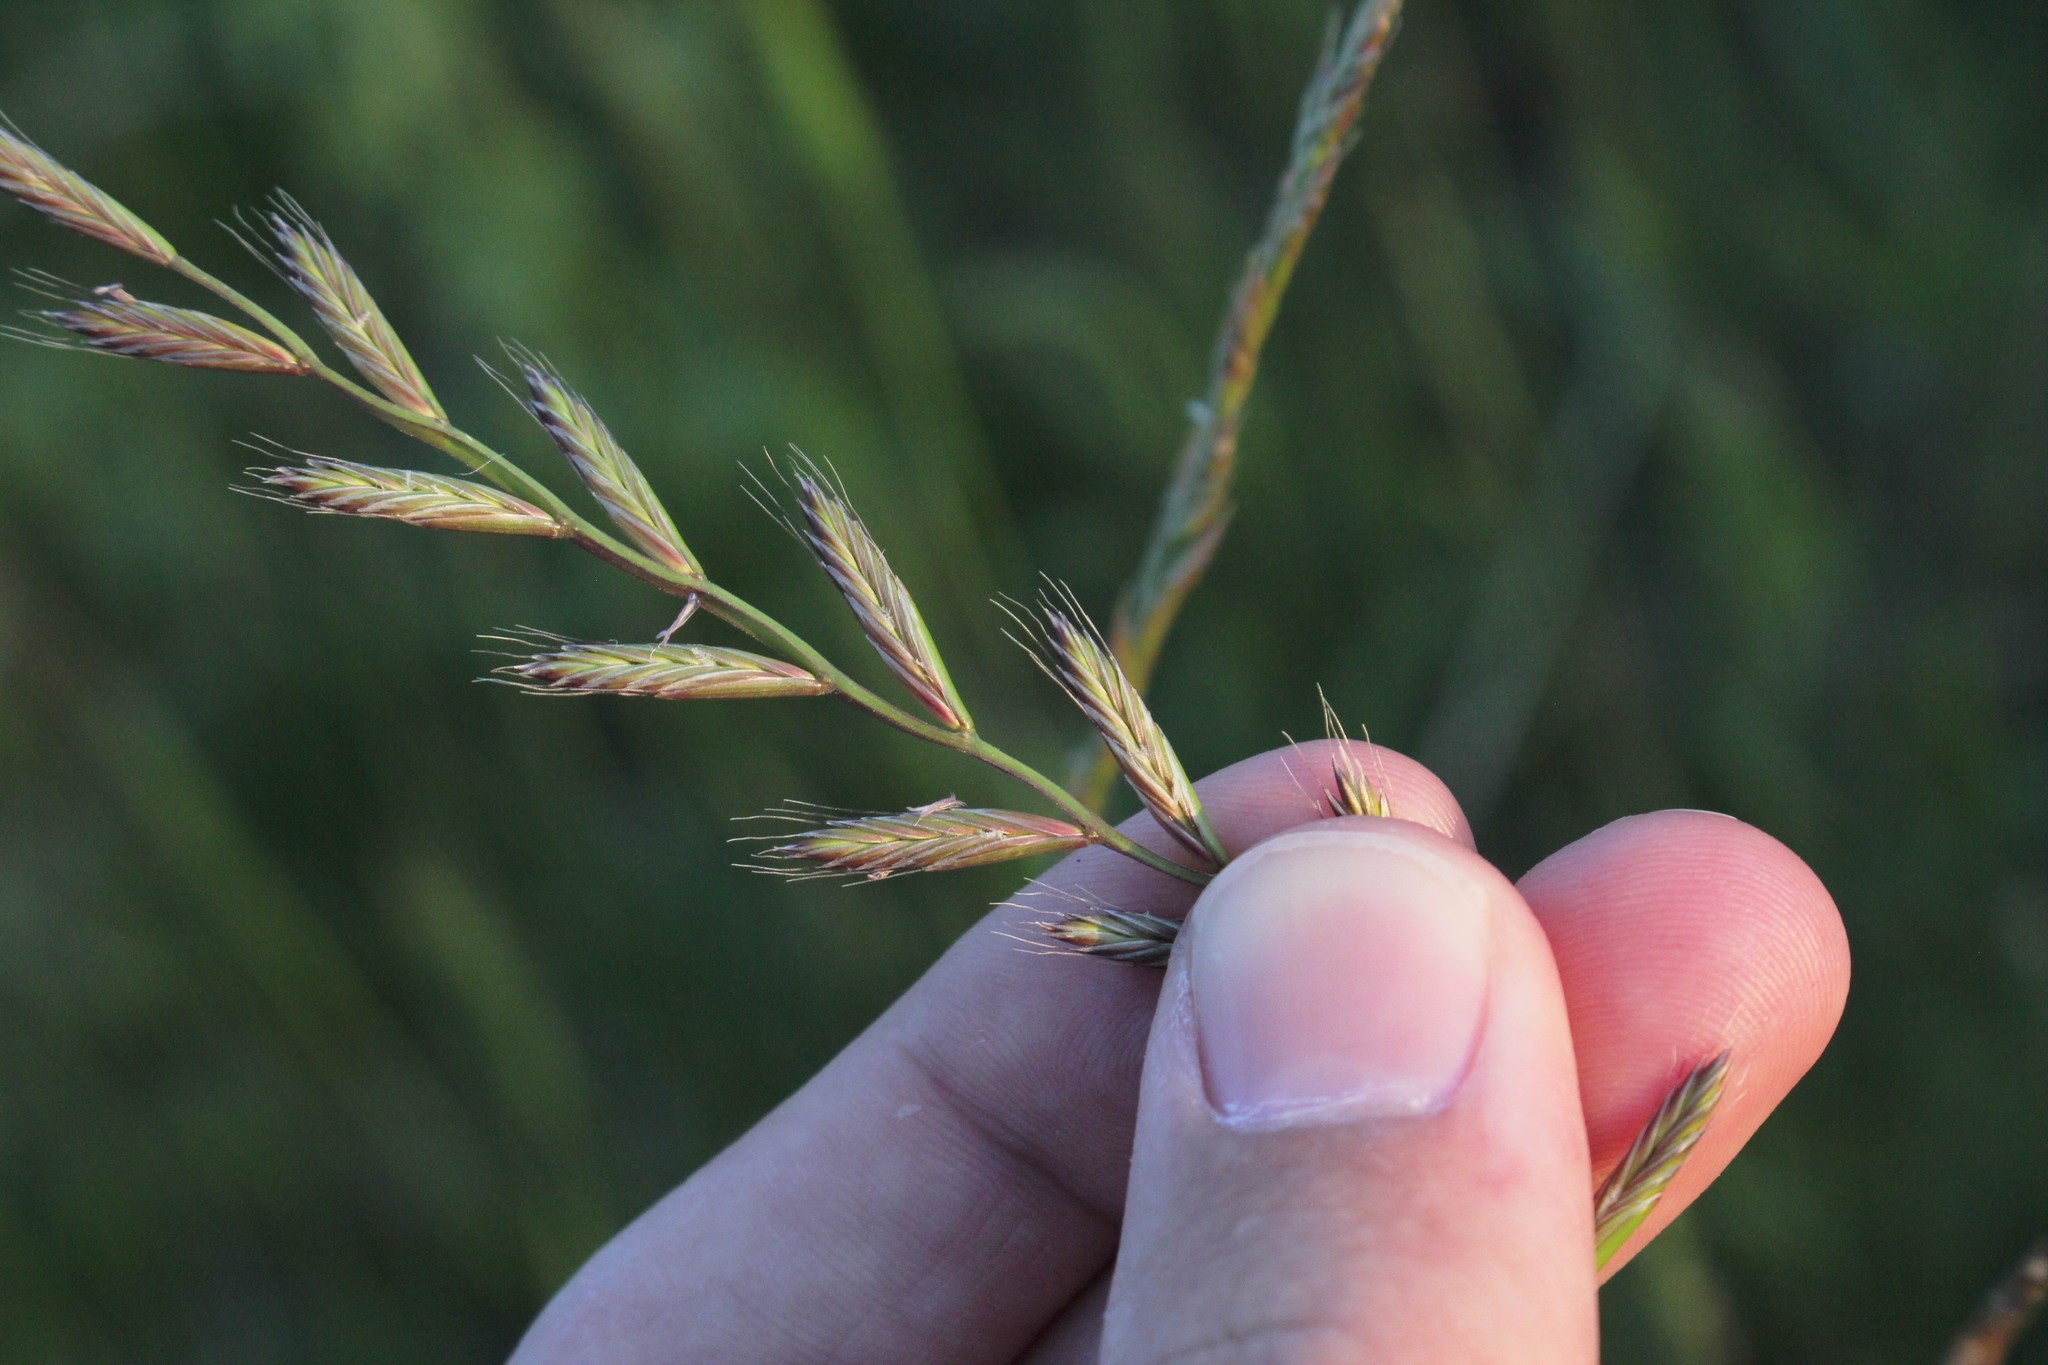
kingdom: Plantae
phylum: Tracheophyta
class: Liliopsida
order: Poales
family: Poaceae
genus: Lolium
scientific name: Lolium multiflorum
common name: Annual ryegrass
